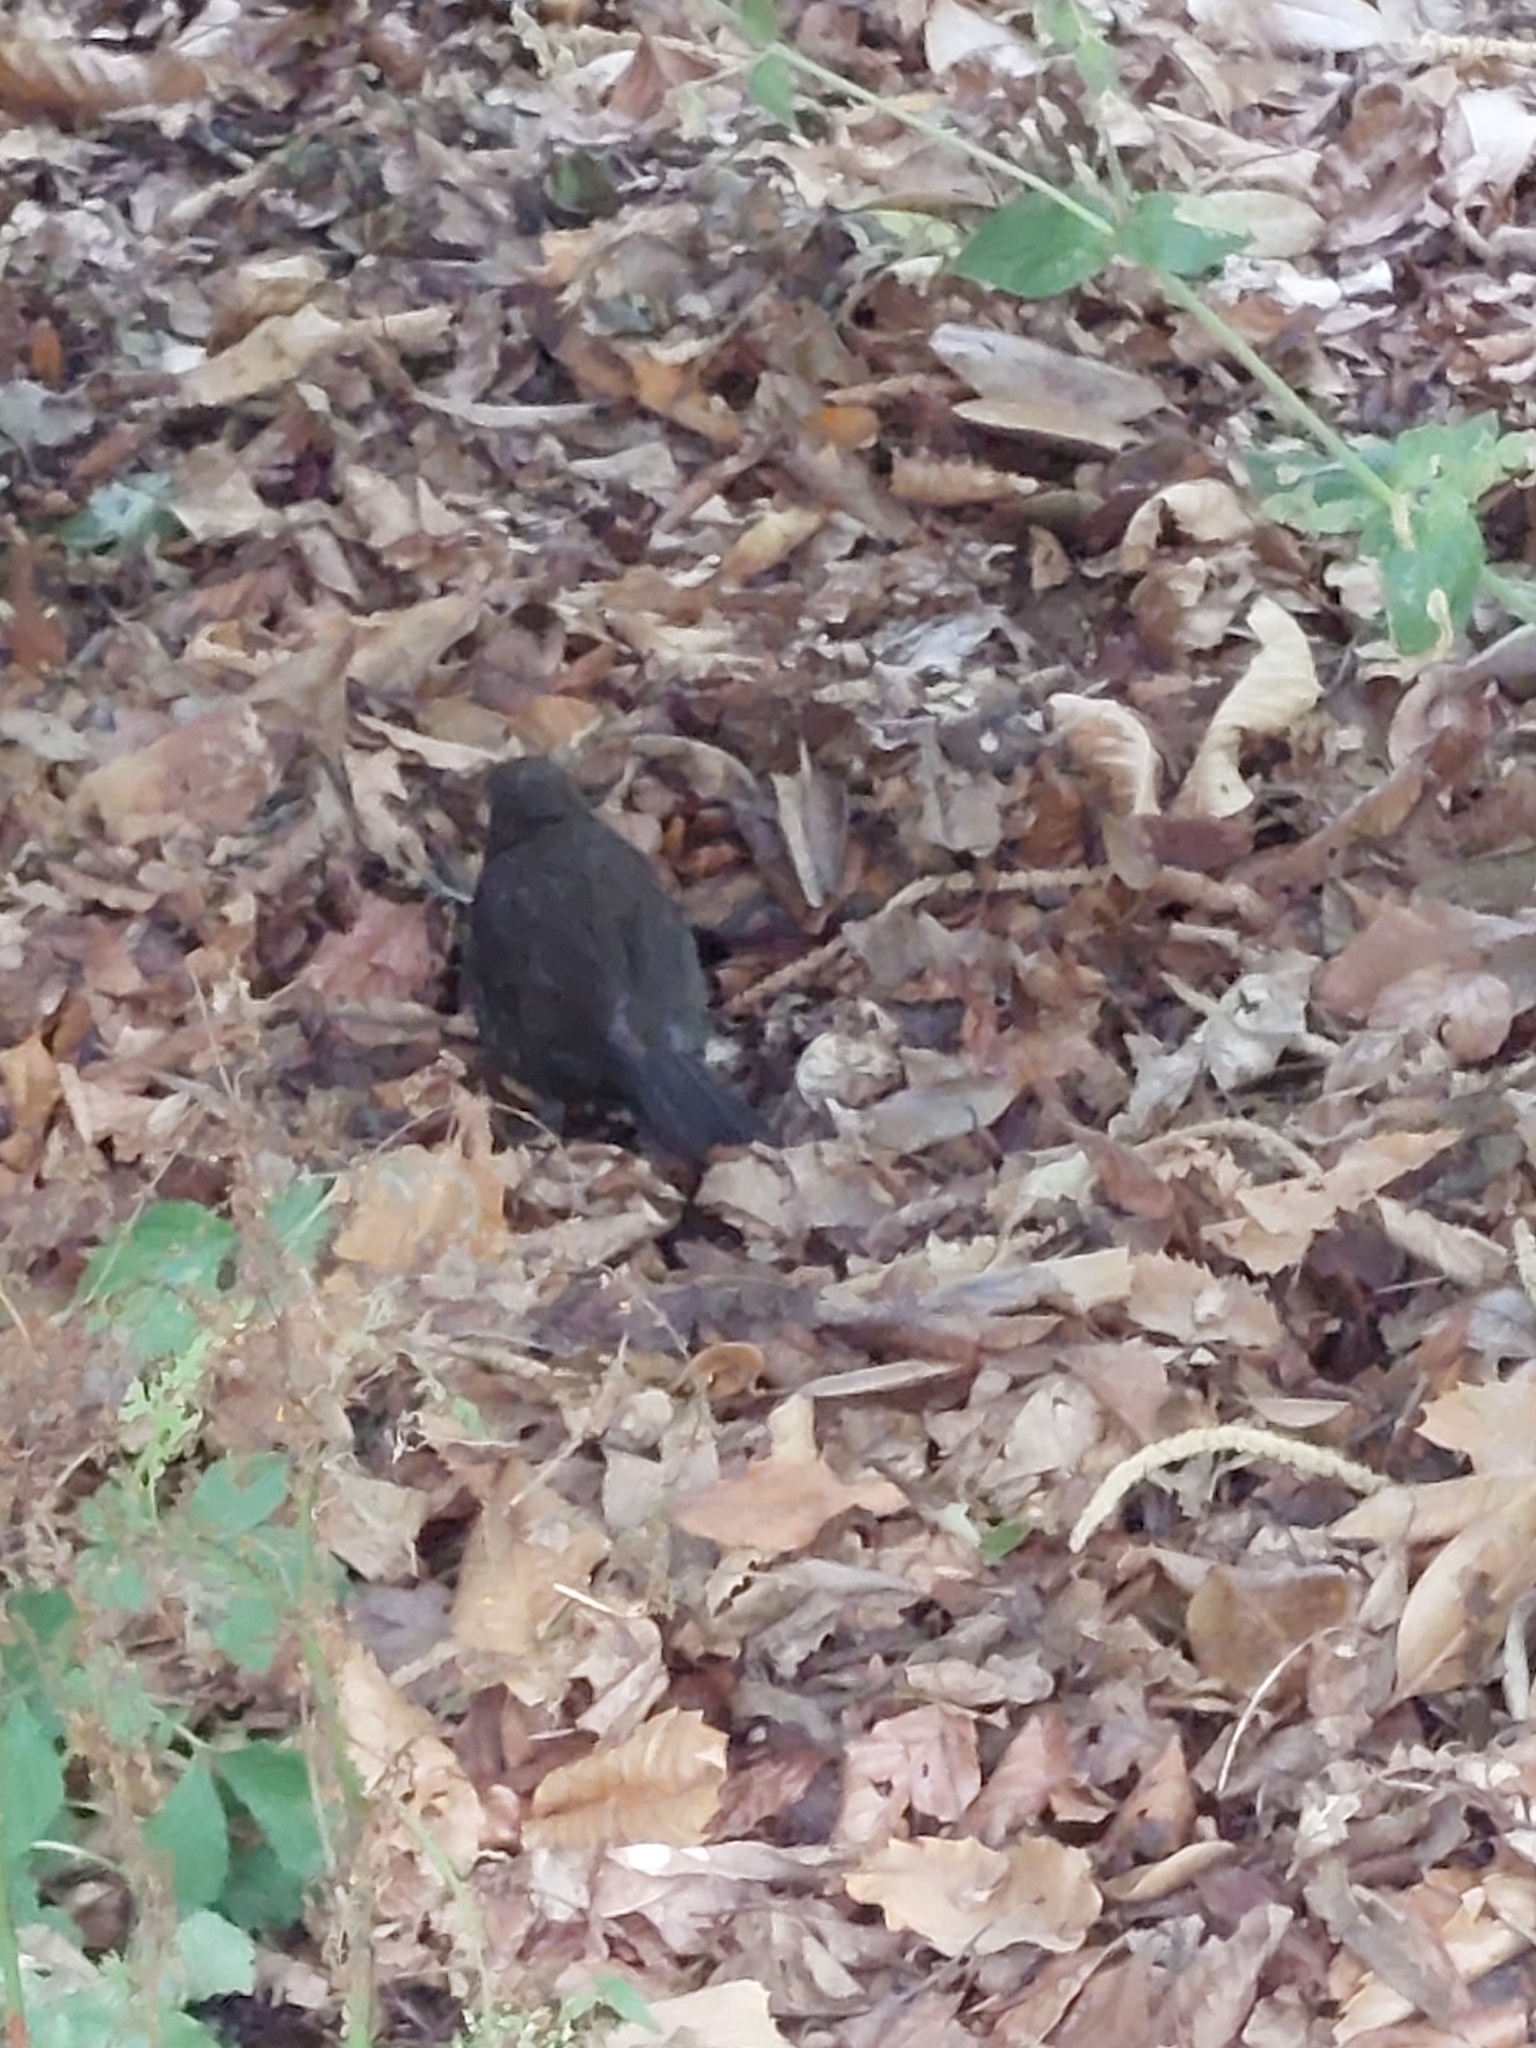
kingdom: Animalia
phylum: Chordata
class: Aves
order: Passeriformes
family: Turdidae
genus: Turdus
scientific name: Turdus merula
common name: Common blackbird
